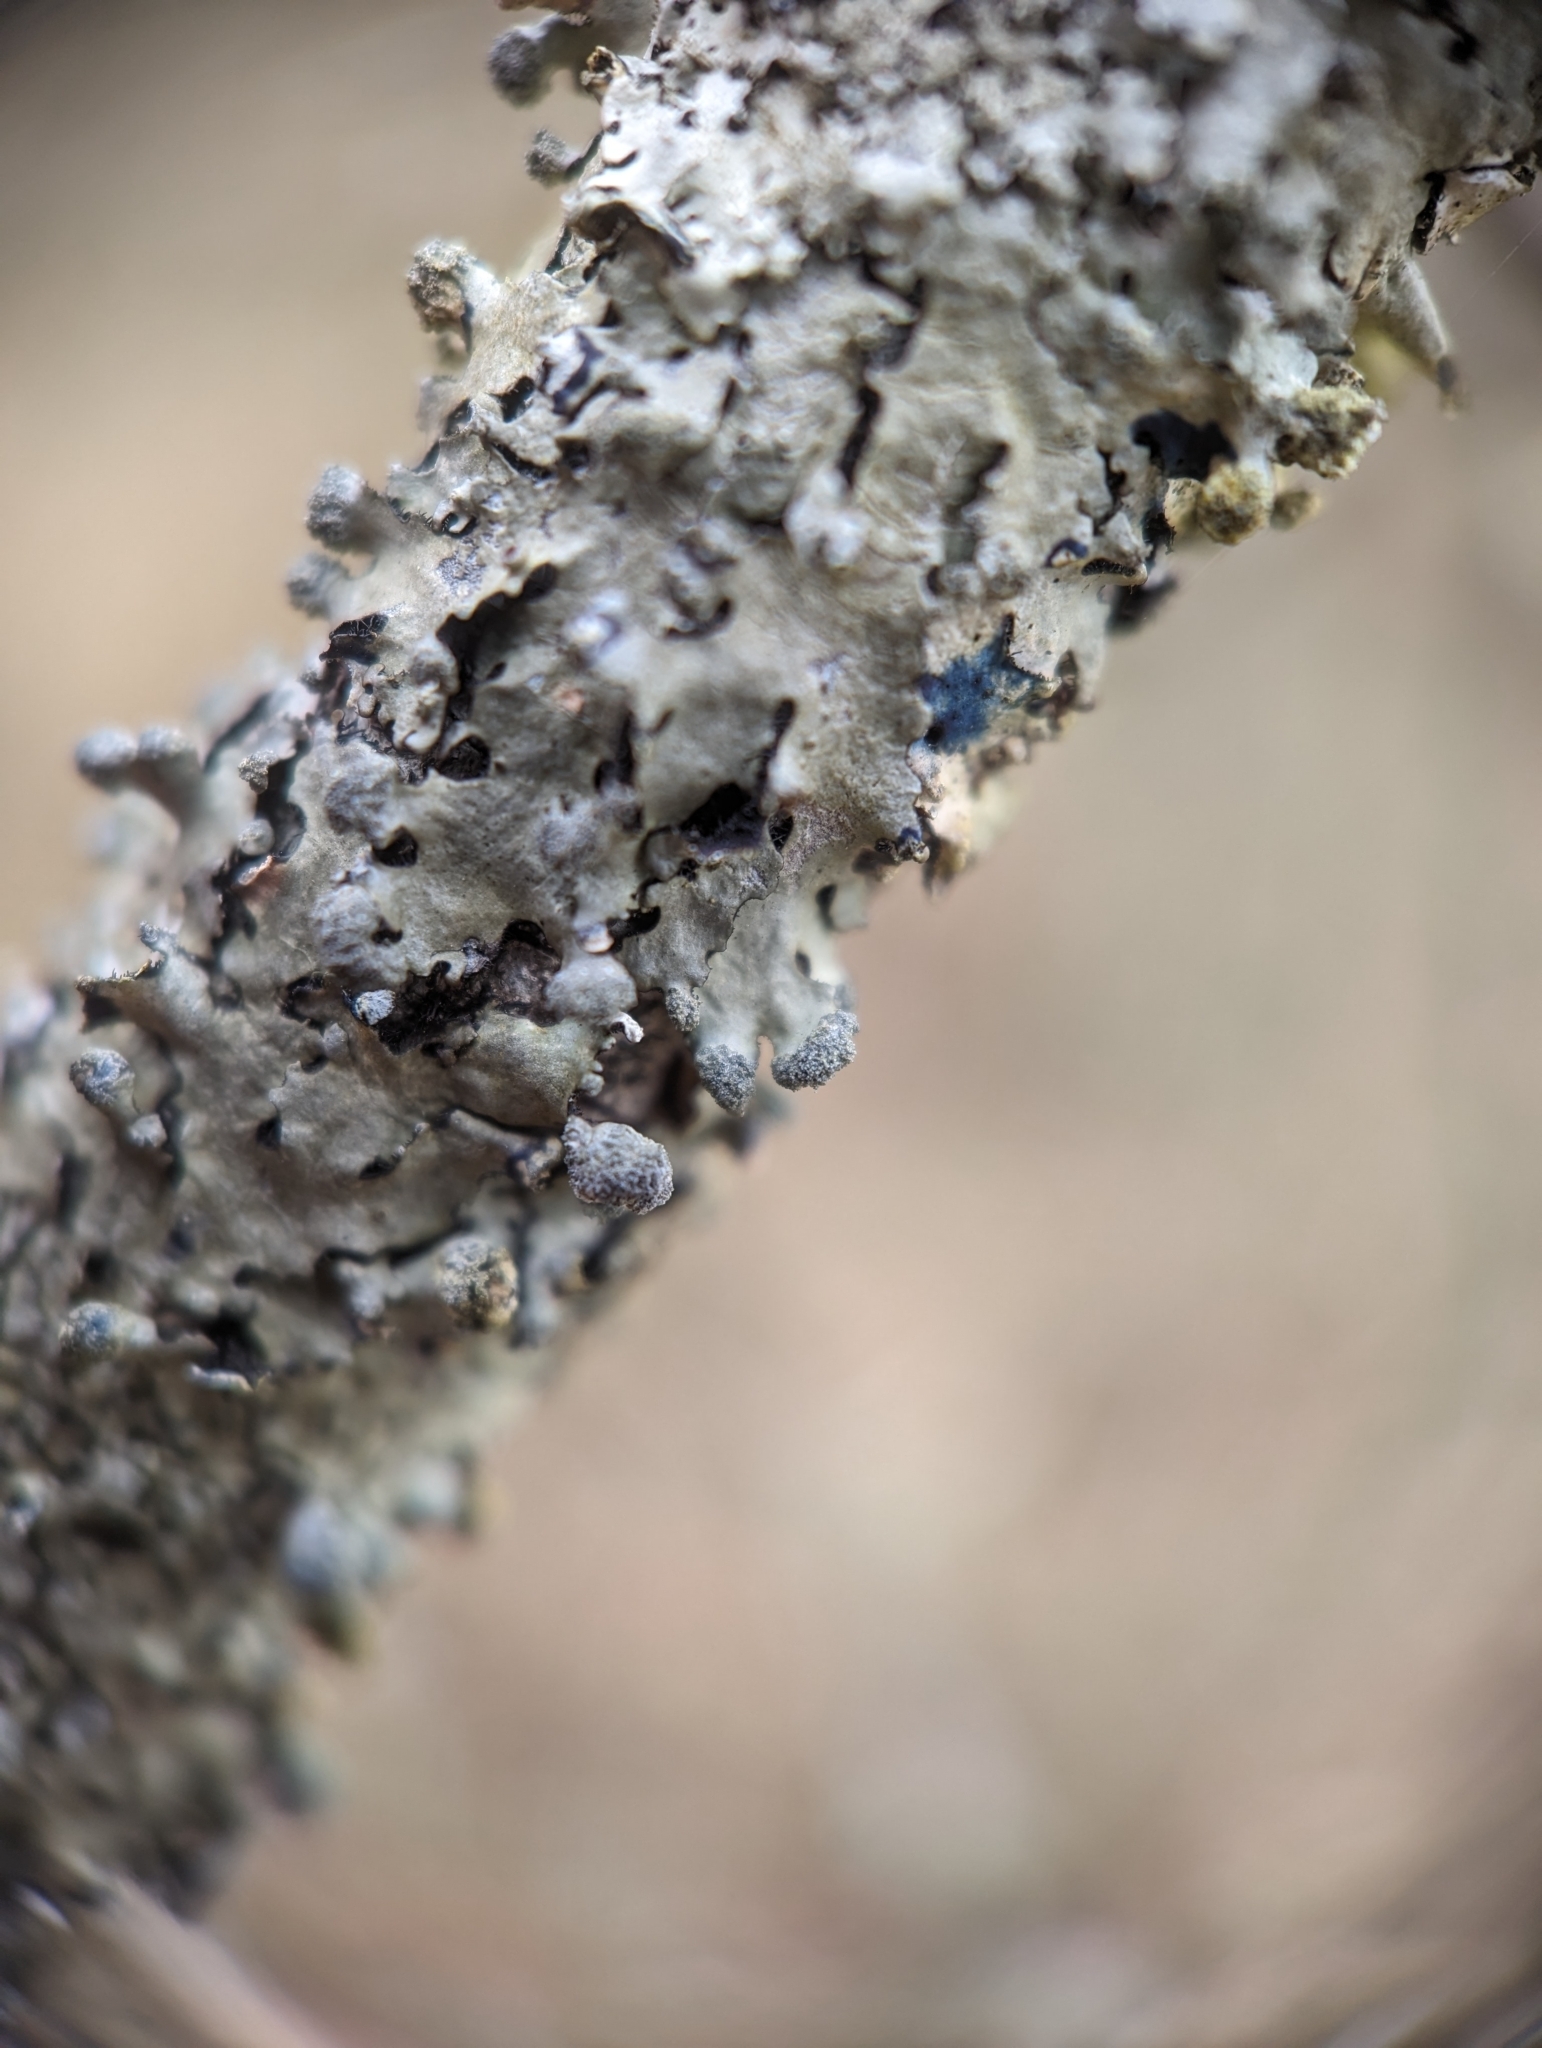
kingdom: Fungi
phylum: Ascomycota
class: Lecanoromycetes
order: Lecanorales
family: Parmeliaceae
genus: Myelochroa
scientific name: Myelochroa metarevoluta
